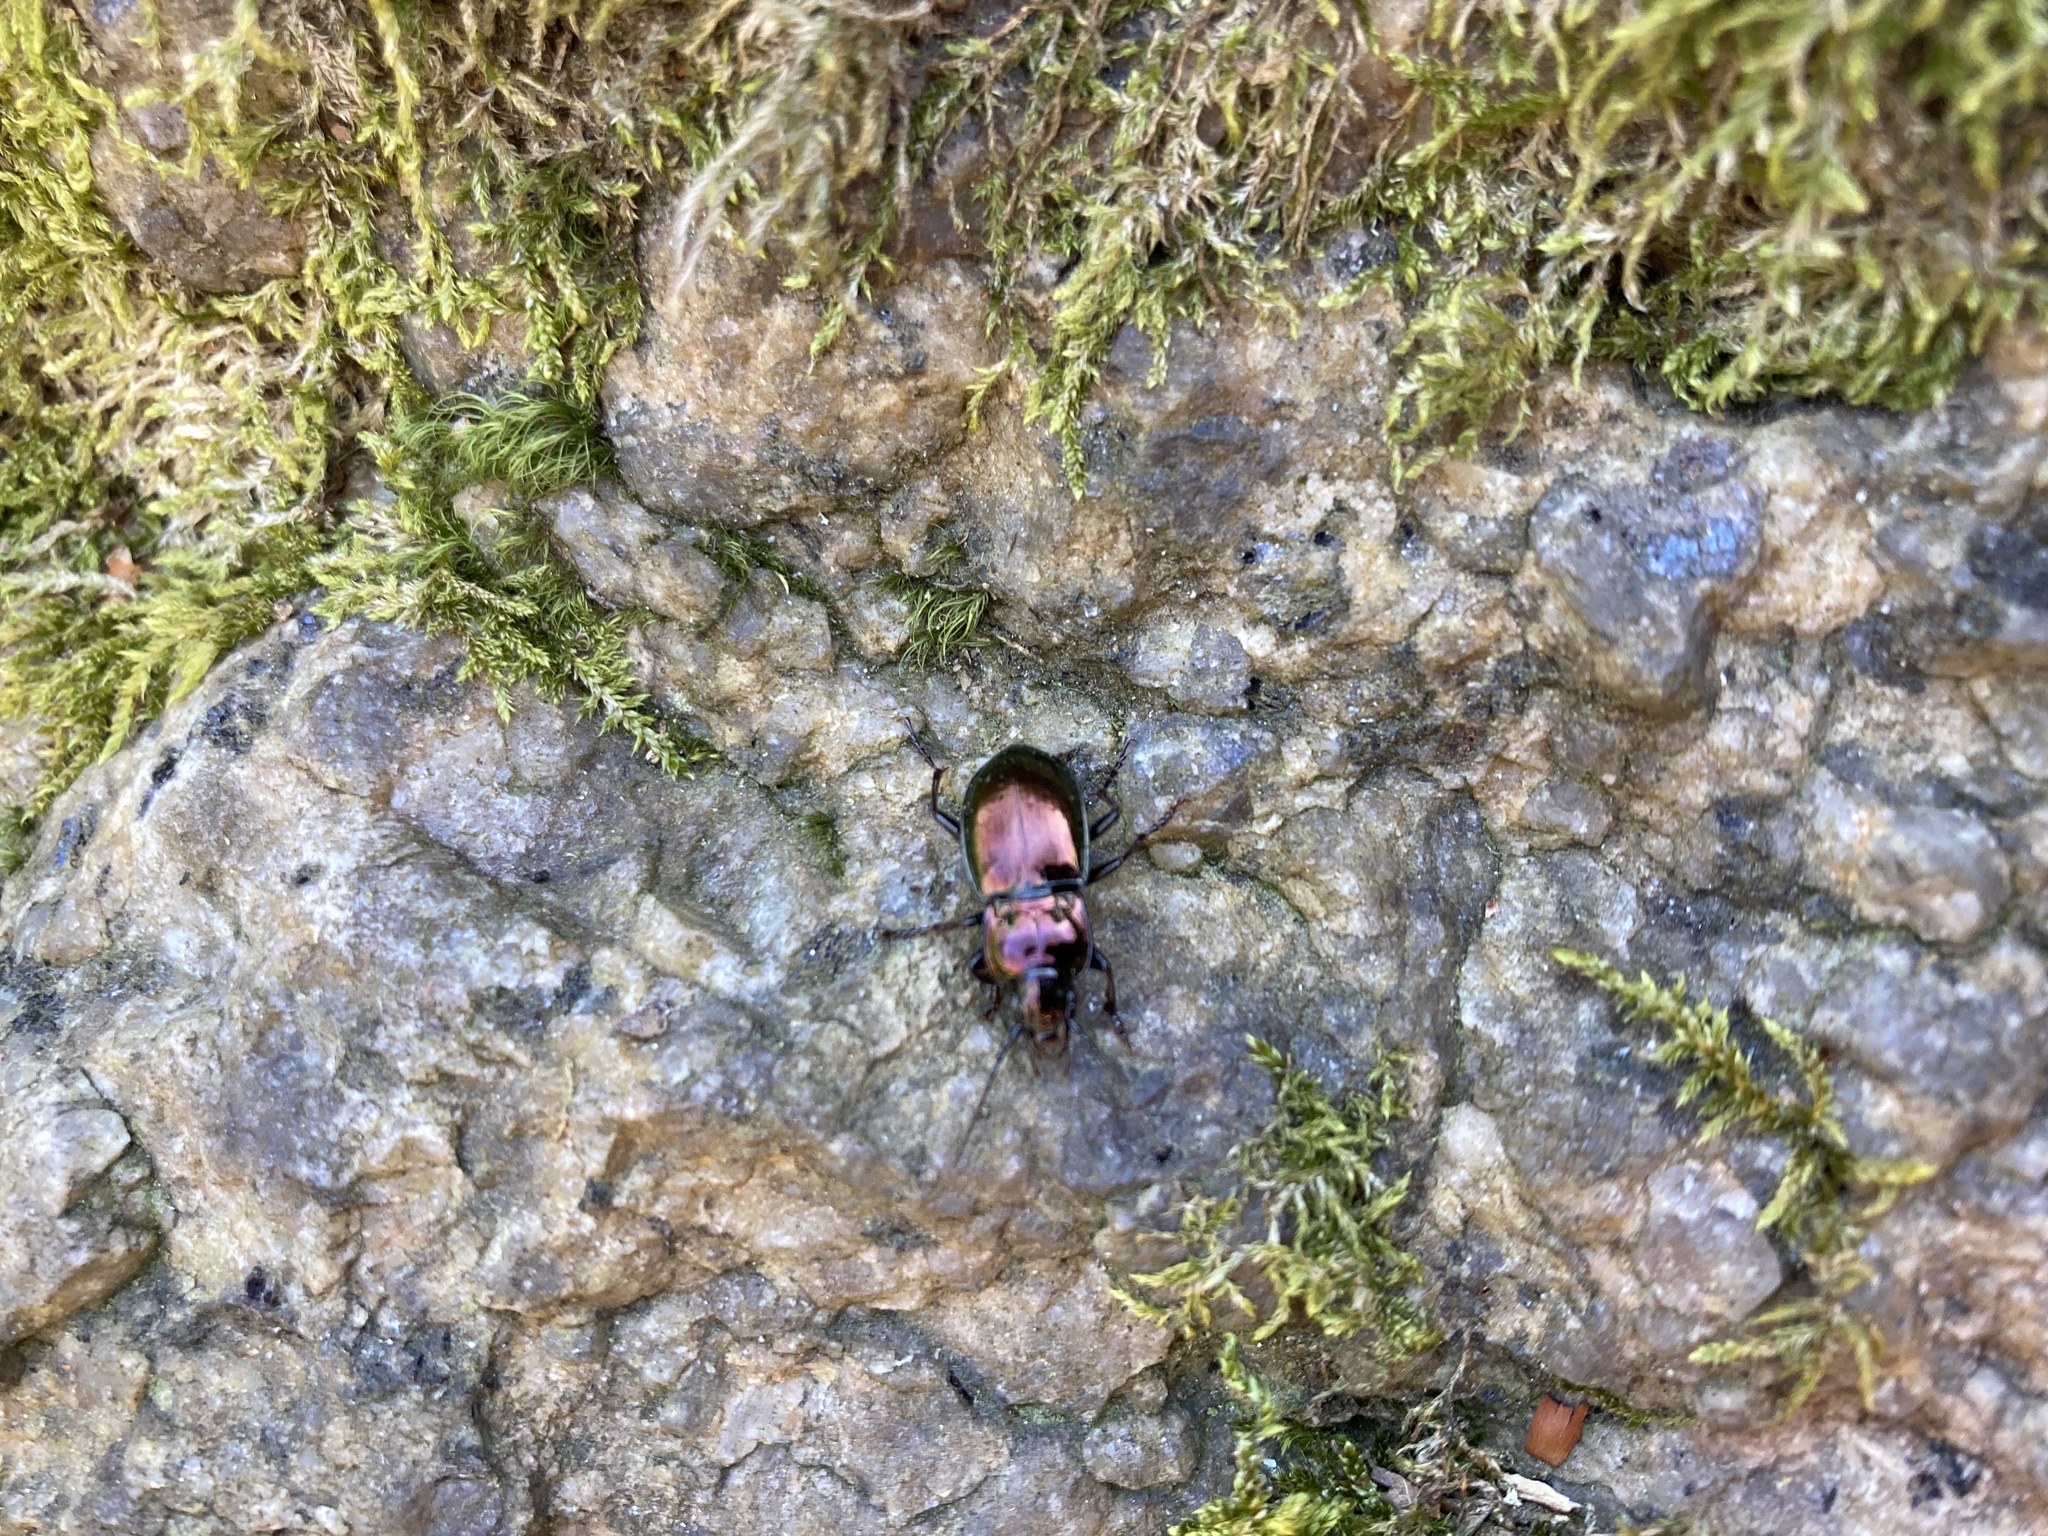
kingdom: Animalia
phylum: Arthropoda
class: Insecta
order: Coleoptera
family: Carabidae
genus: Pterostichus
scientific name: Pterostichus burmeisteri
